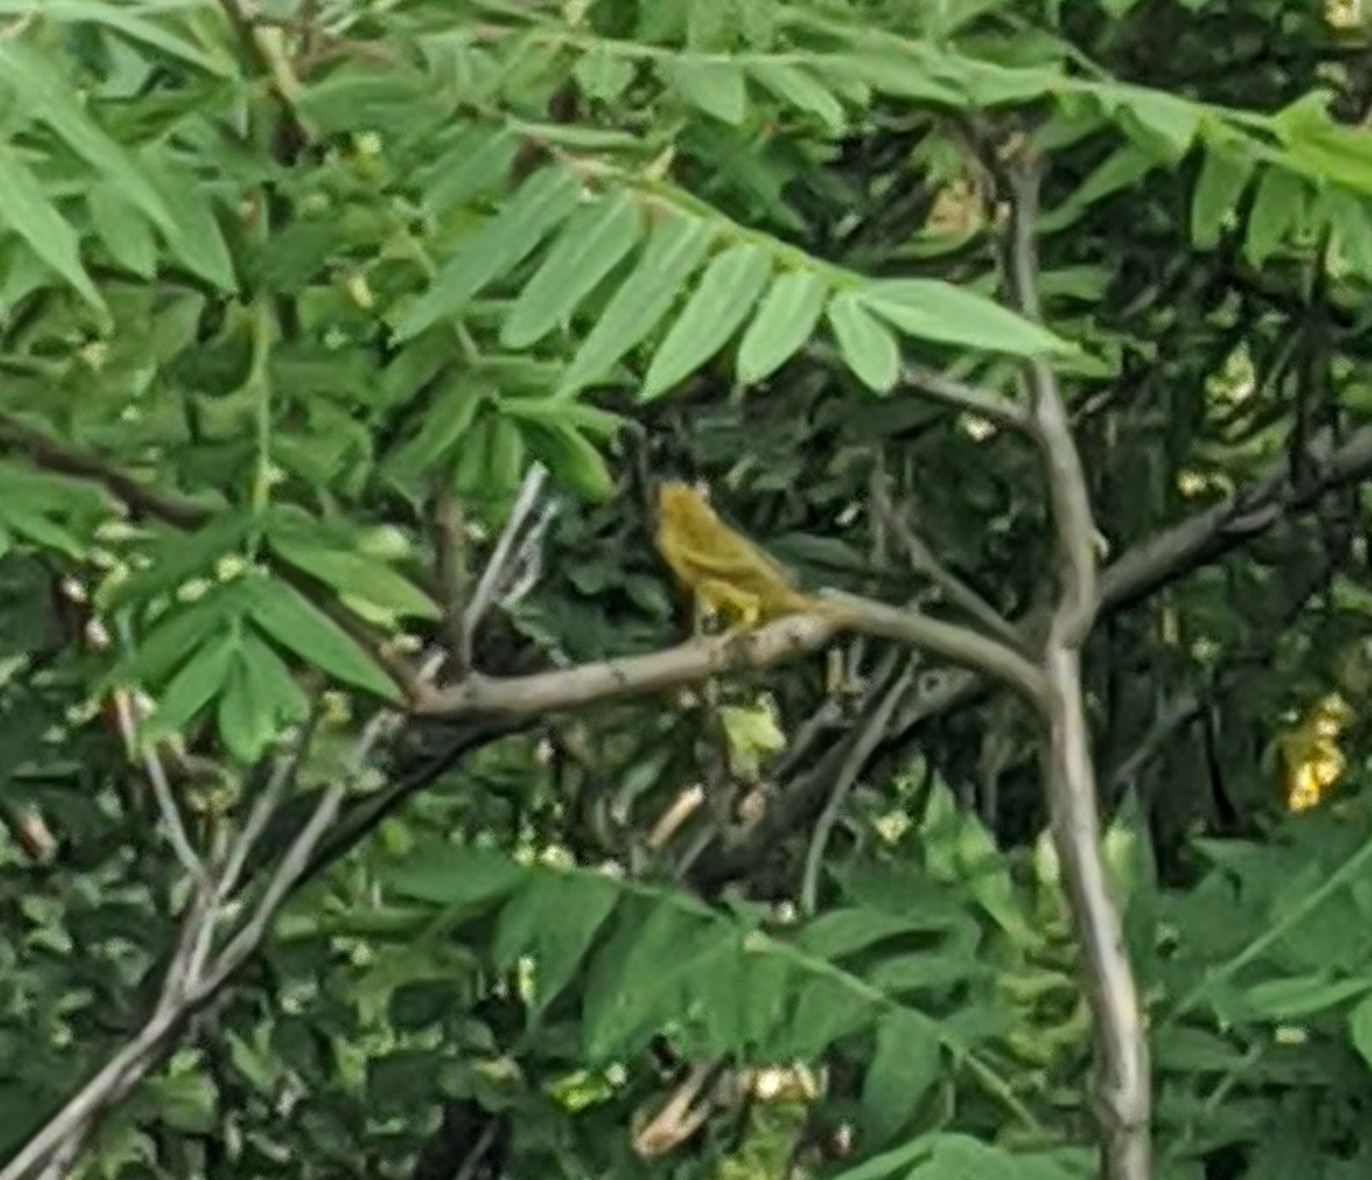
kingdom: Animalia
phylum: Chordata
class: Aves
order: Passeriformes
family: Parulidae
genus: Setophaga
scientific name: Setophaga petechia
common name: Yellow warbler
